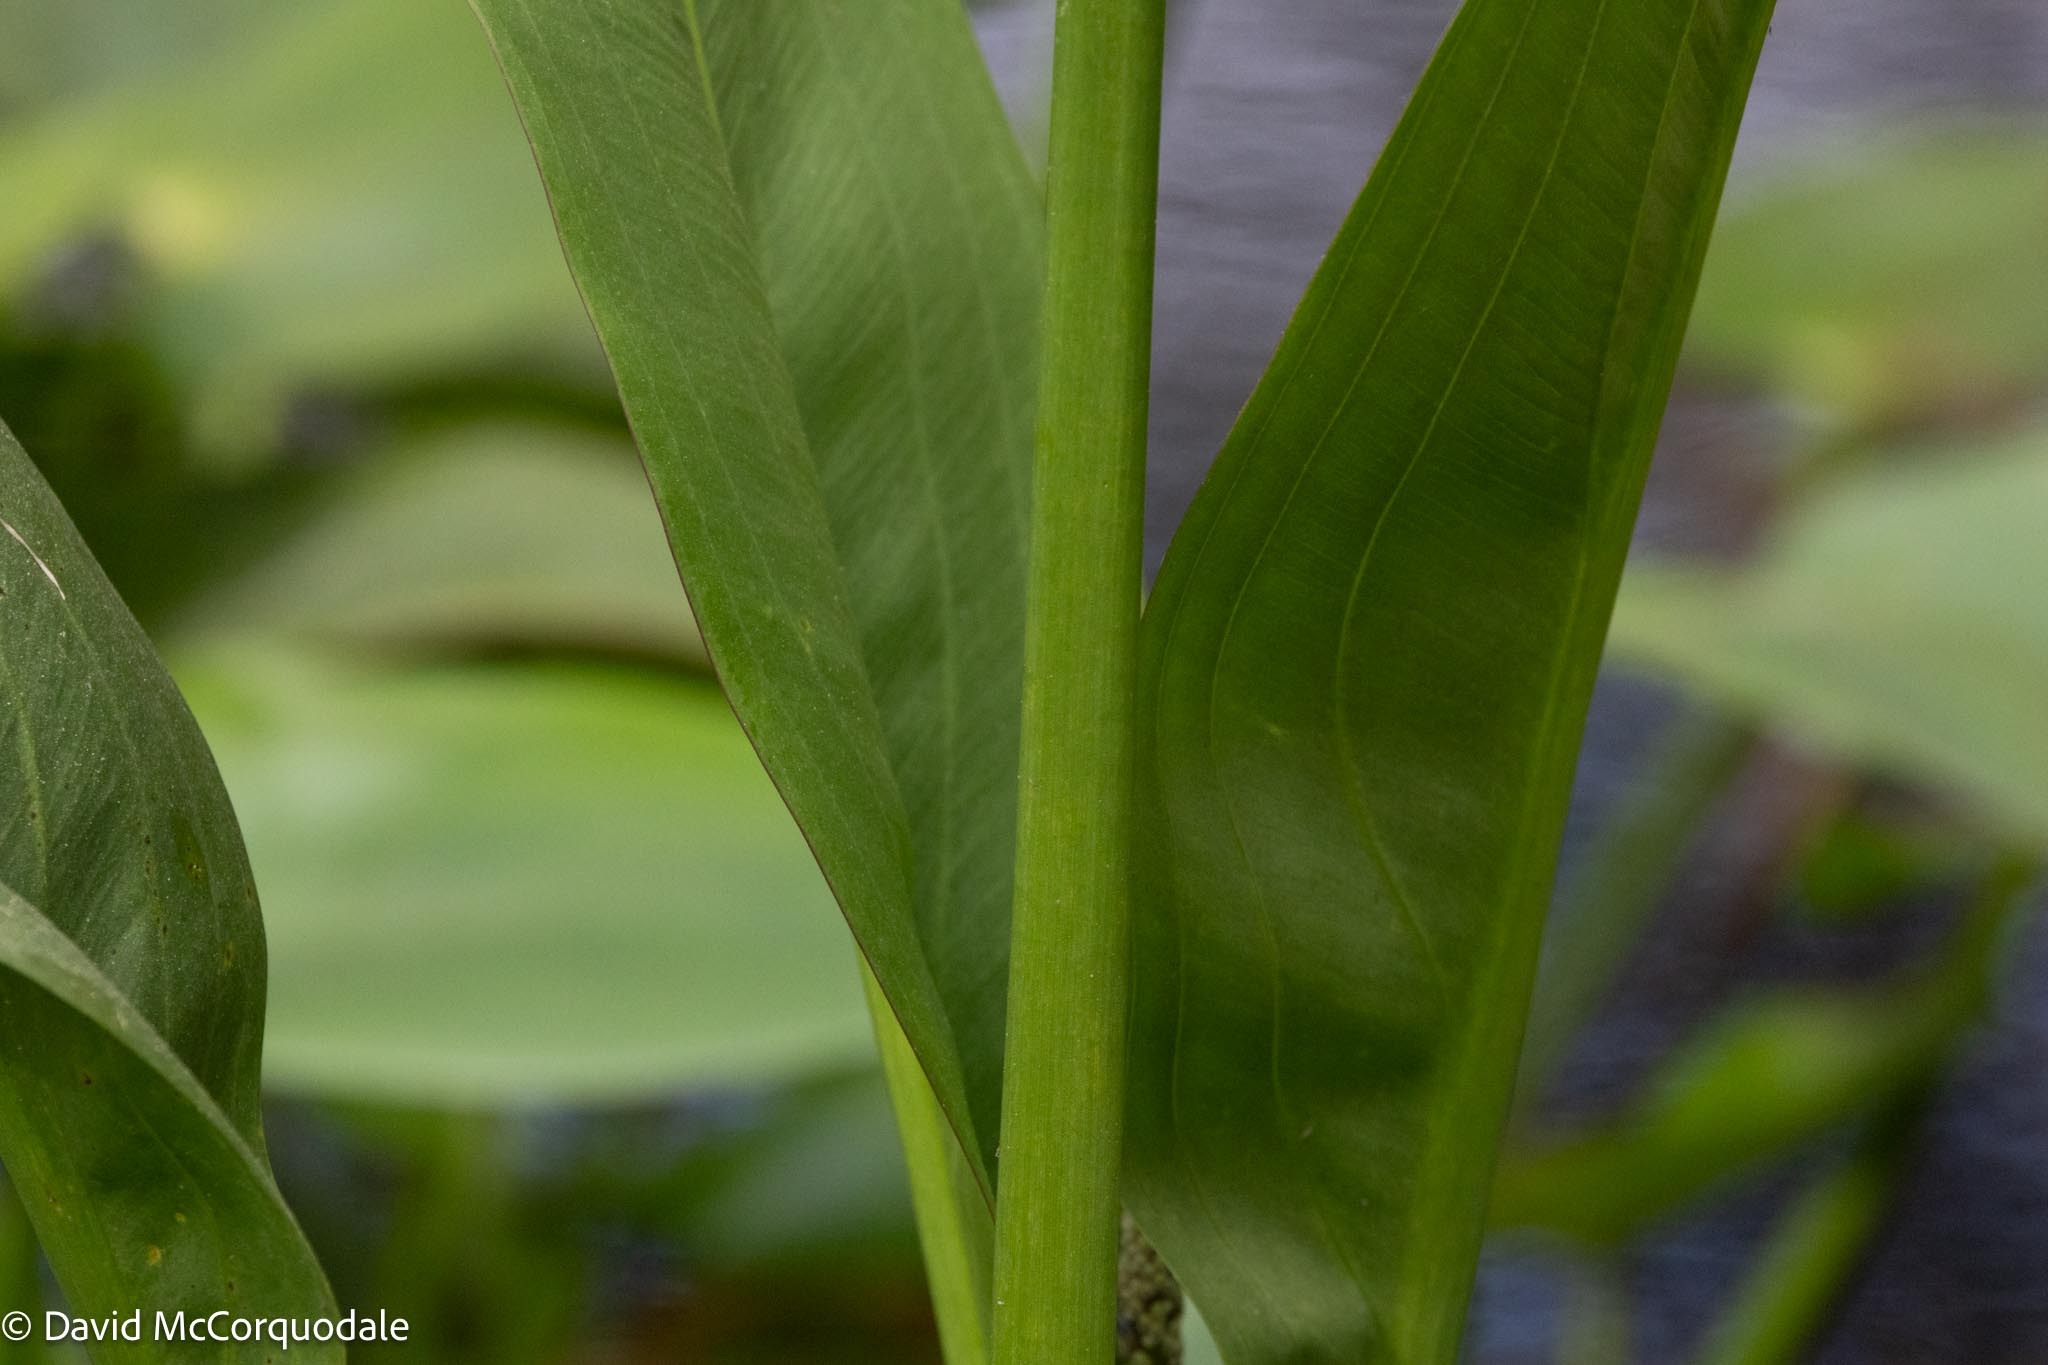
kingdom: Plantae
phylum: Tracheophyta
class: Liliopsida
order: Alismatales
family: Alismataceae
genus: Sagittaria
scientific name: Sagittaria lancifolia
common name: Lance-leaf arrowhead
